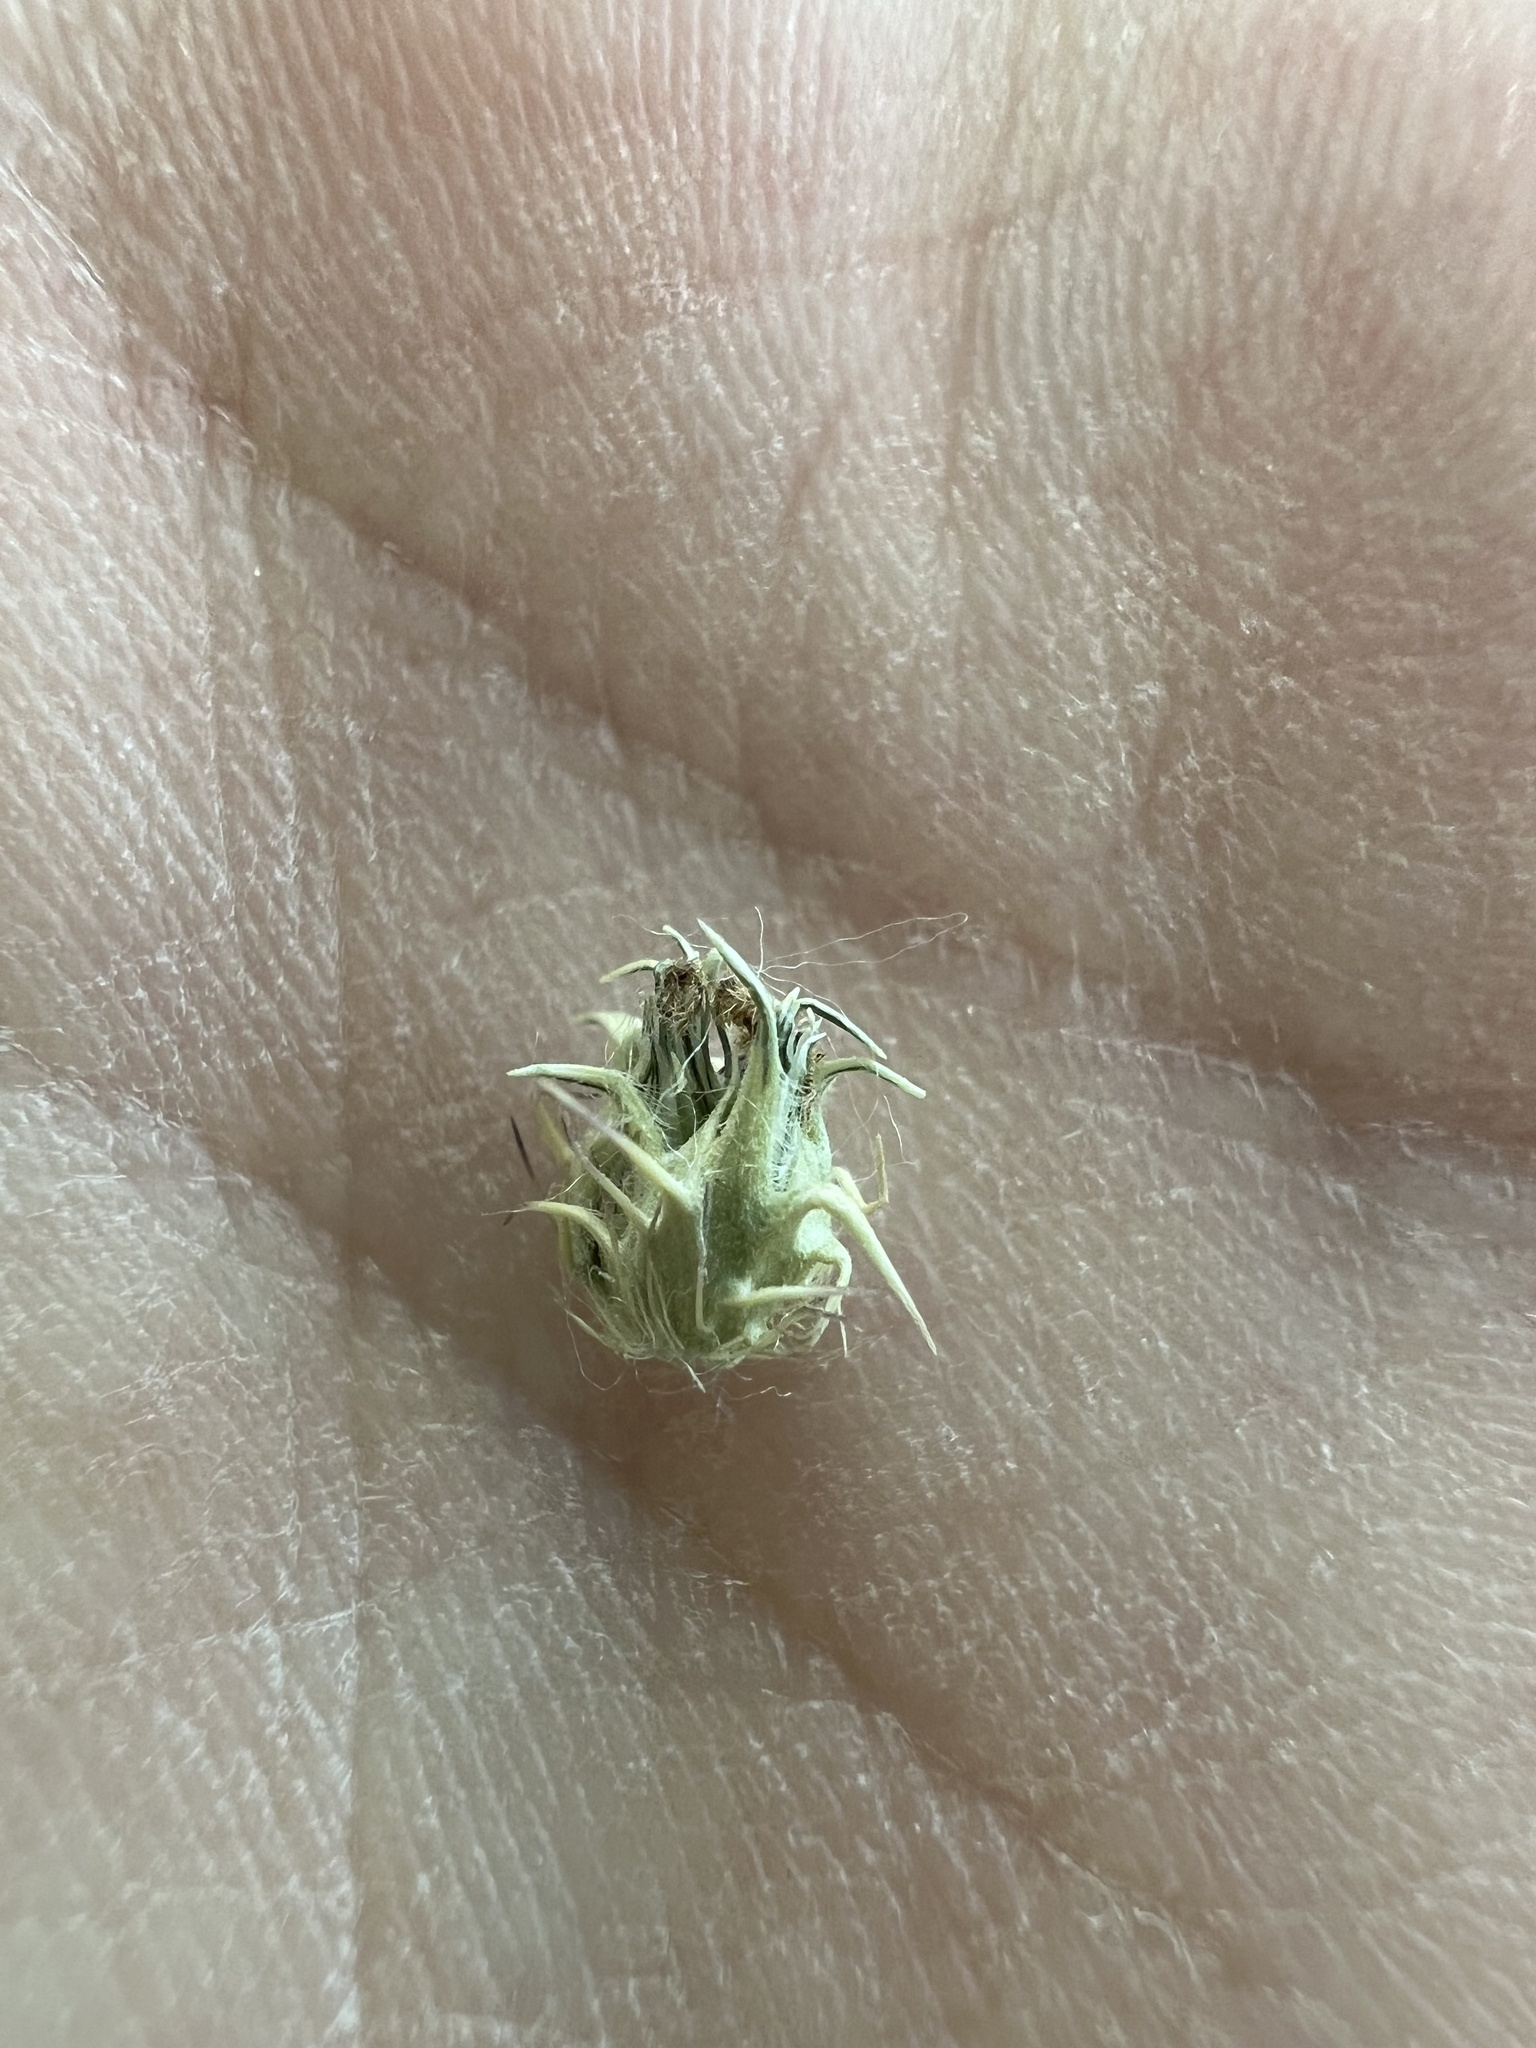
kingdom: Plantae
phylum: Tracheophyta
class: Liliopsida
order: Poales
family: Poaceae
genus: Cenchrus
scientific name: Cenchrus echinatus
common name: Southern sandbur
